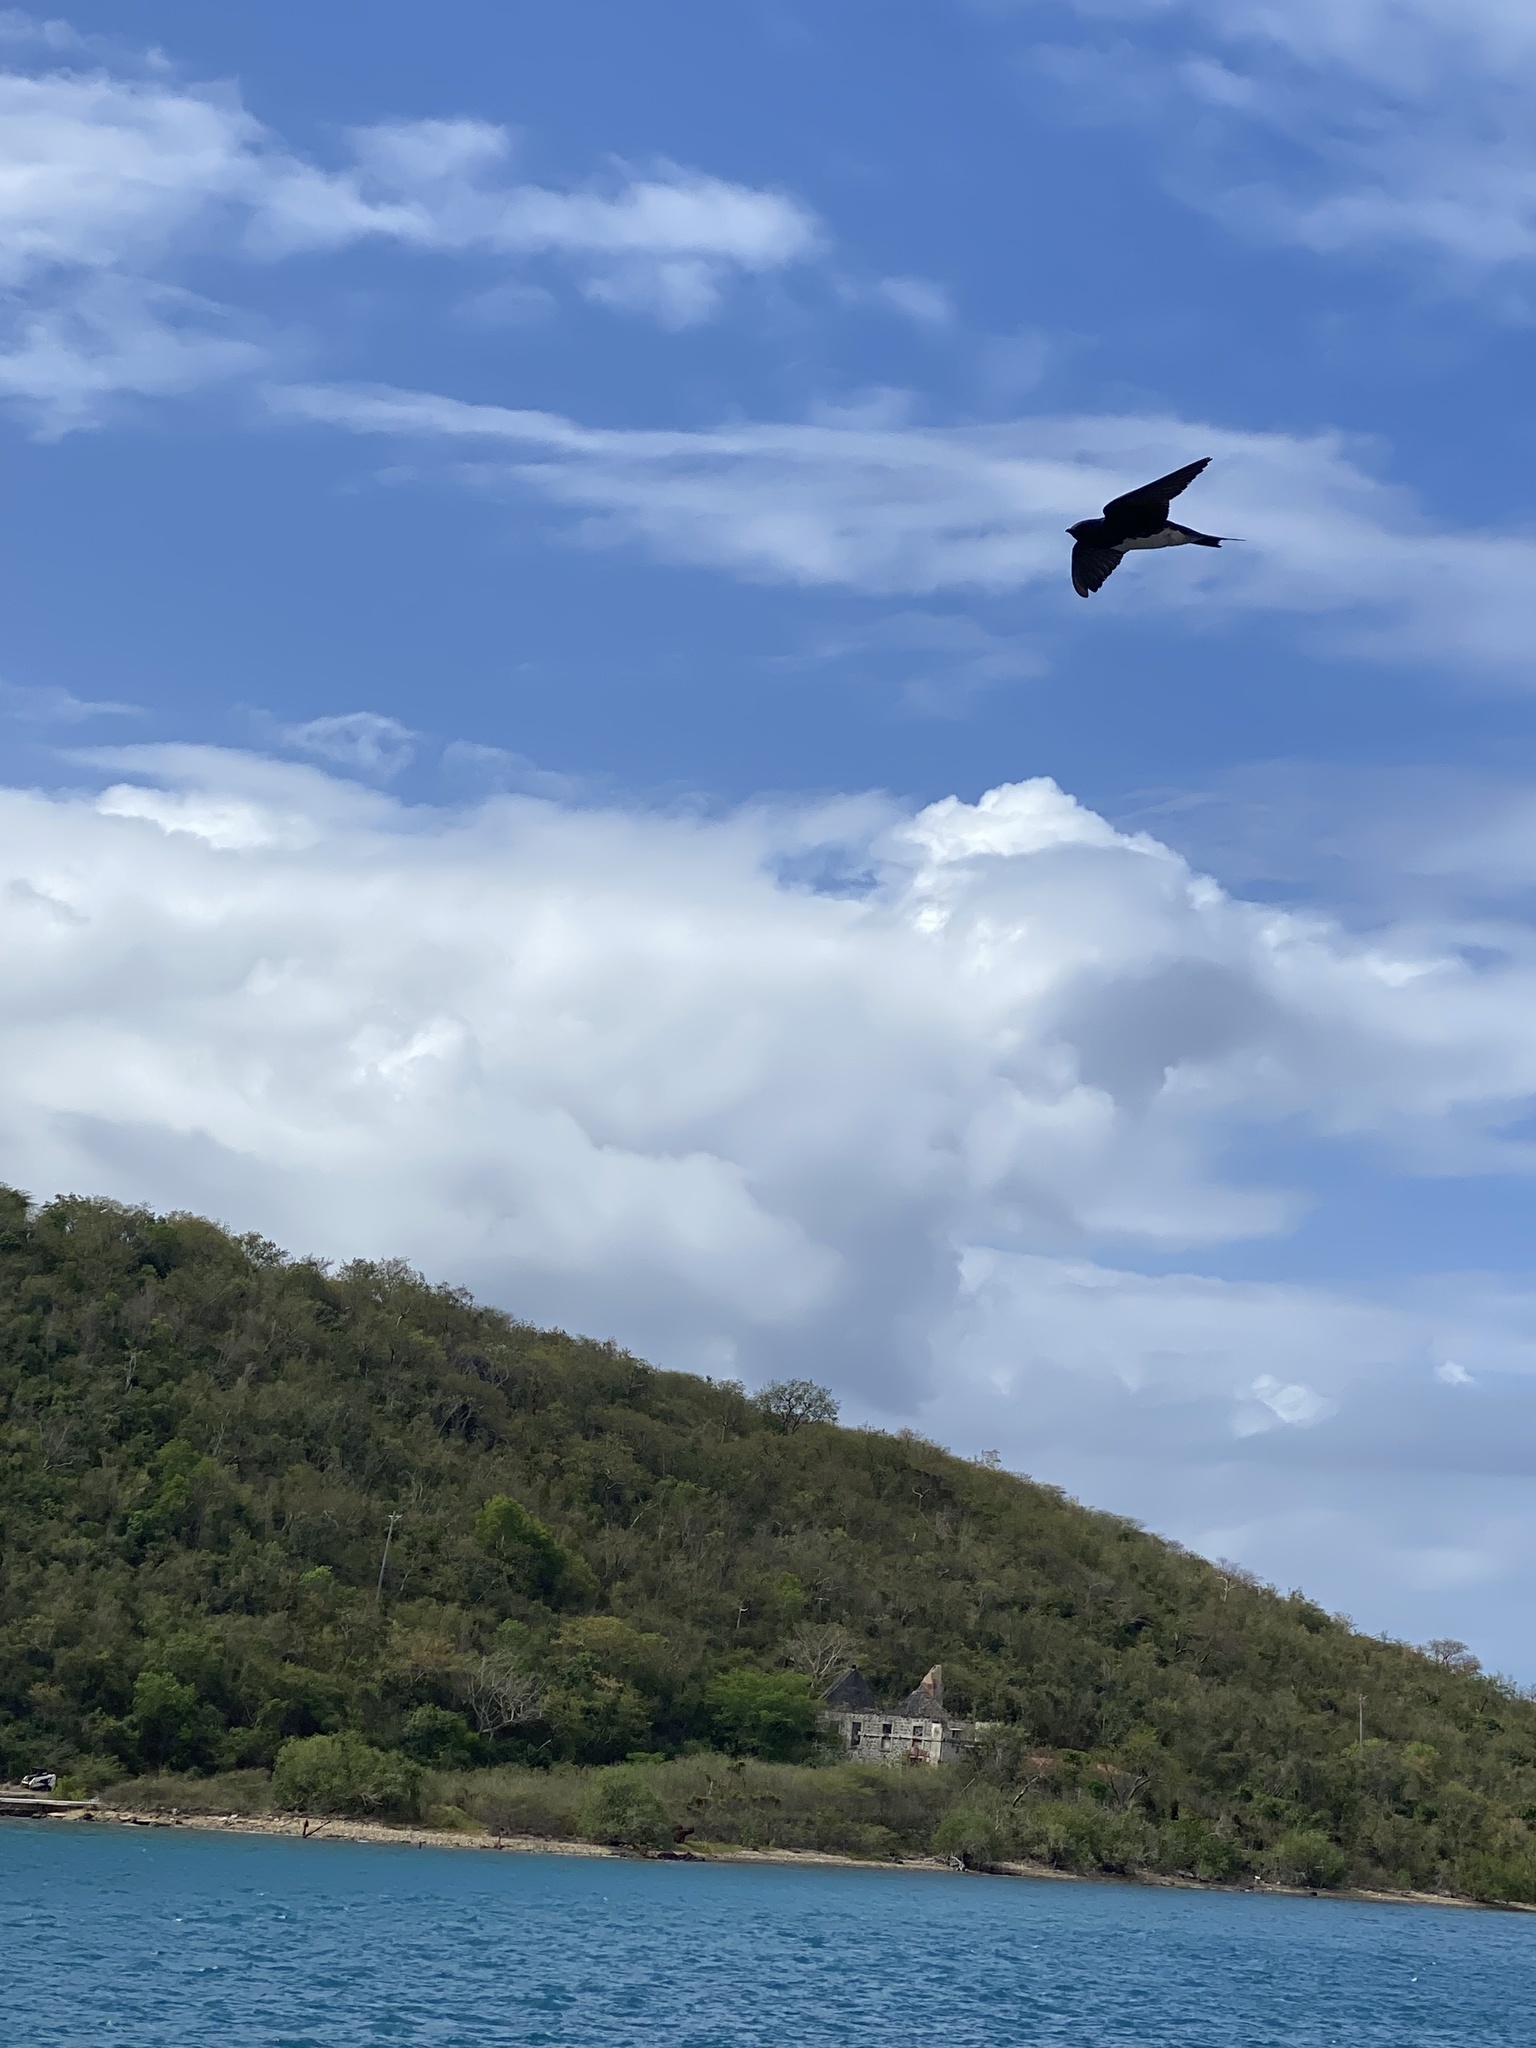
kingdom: Animalia
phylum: Chordata
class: Aves
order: Passeriformes
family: Hirundinidae
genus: Progne
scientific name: Progne dominicensis
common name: Caribbean martin
